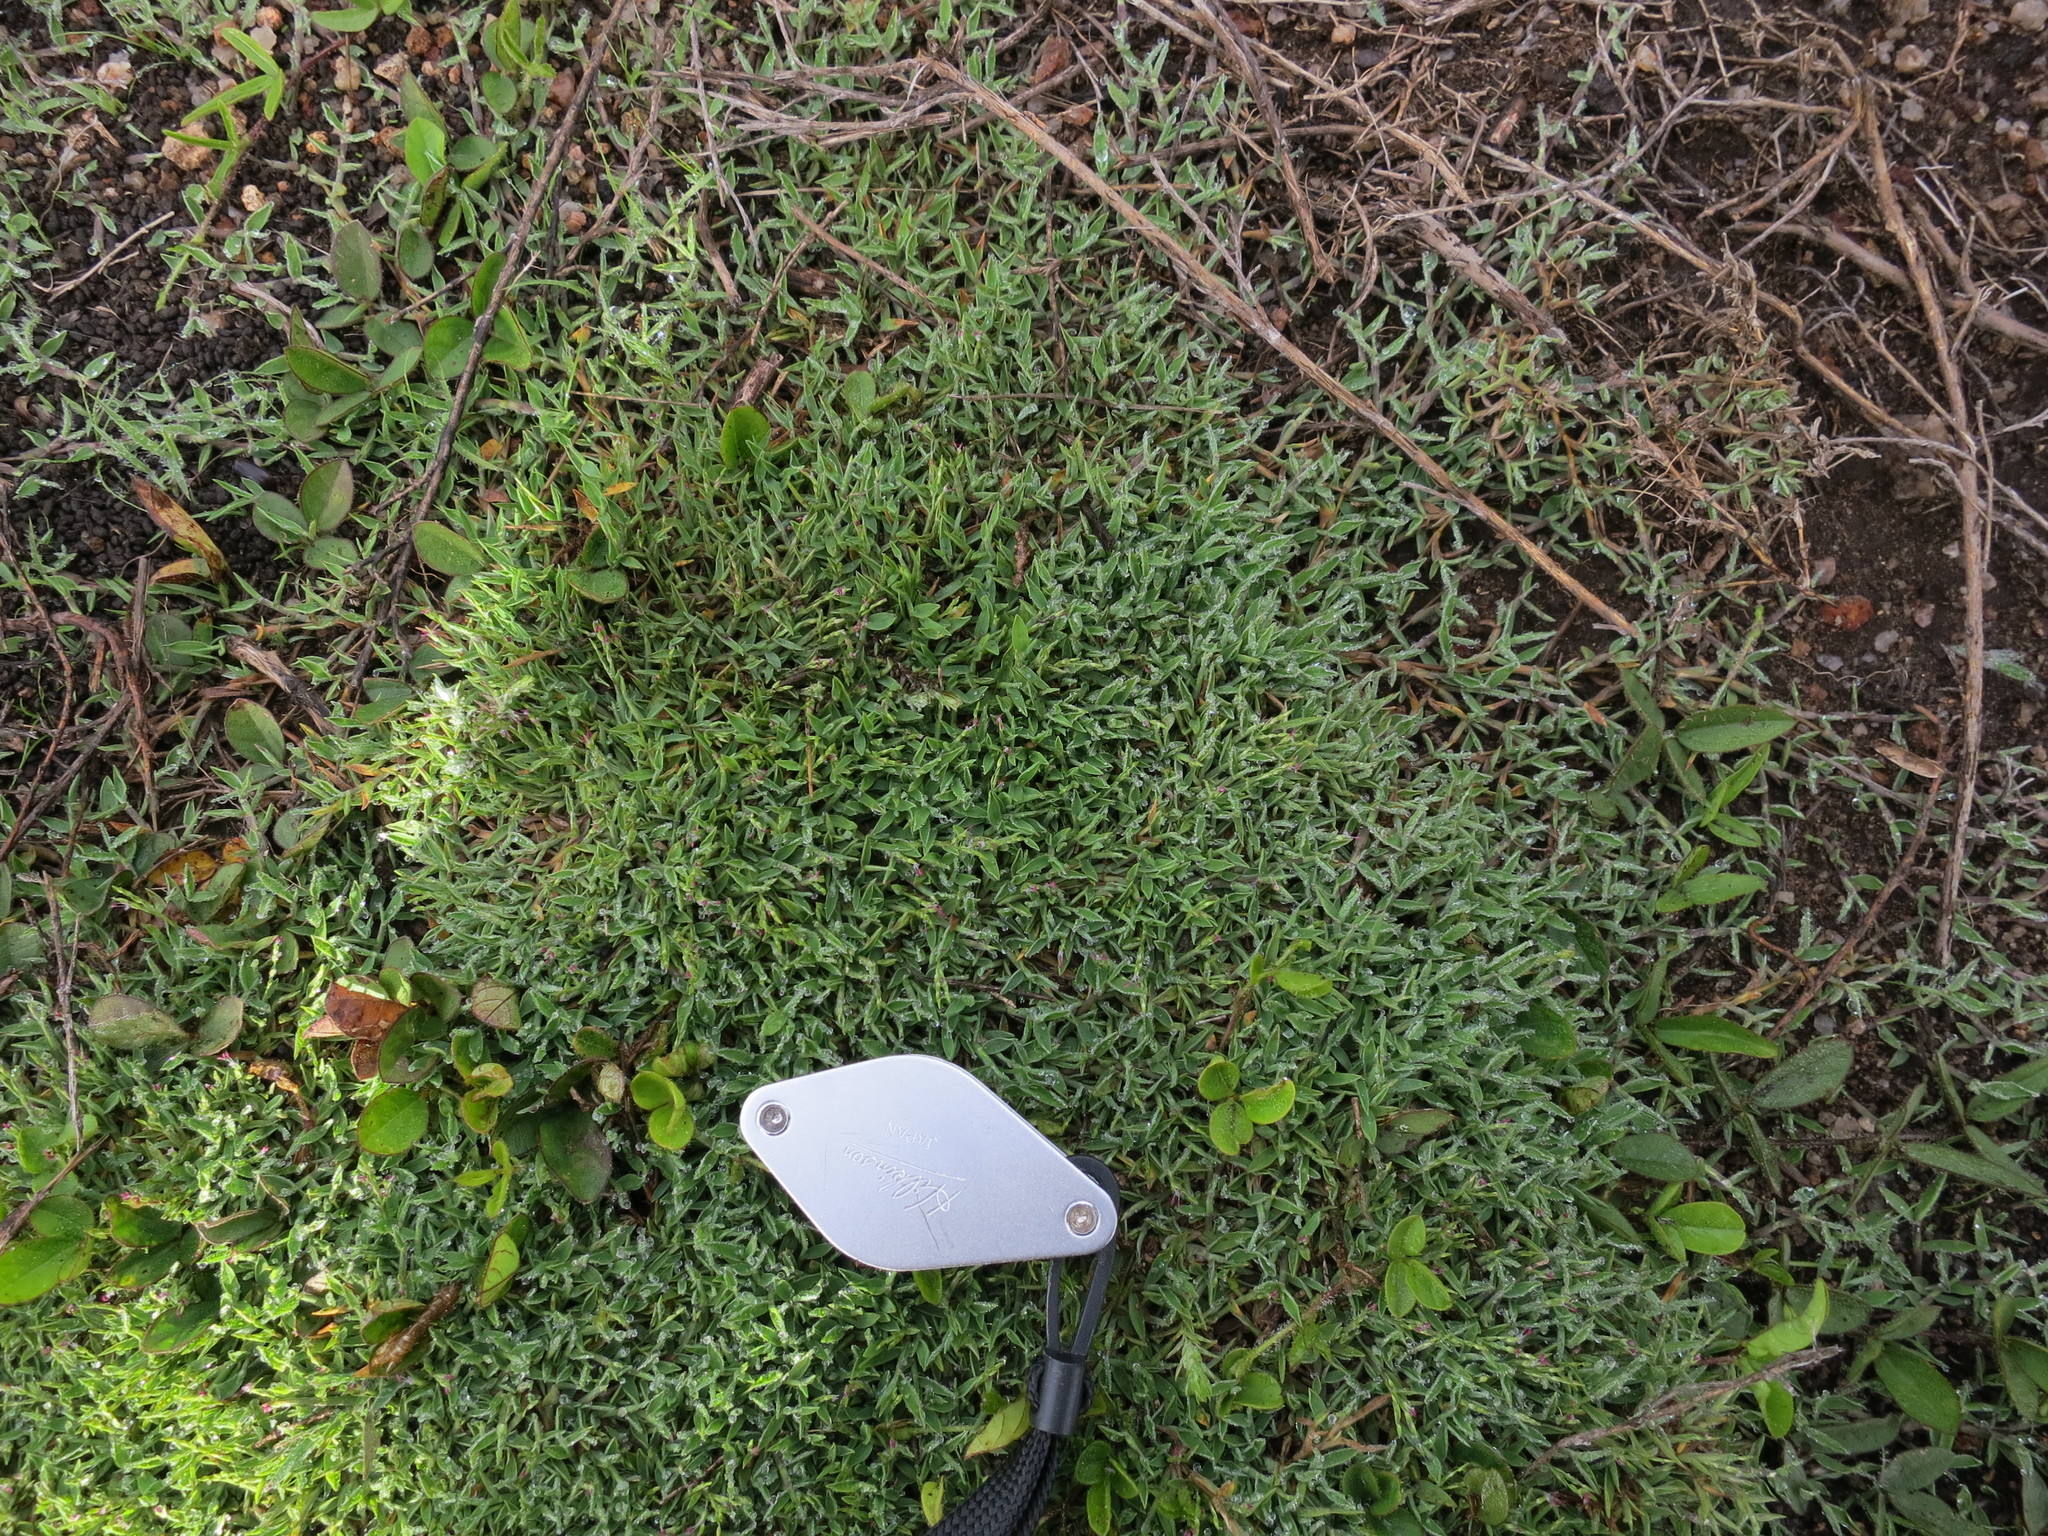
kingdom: Plantae
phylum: Tracheophyta
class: Liliopsida
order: Poales
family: Poaceae
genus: Digitaria
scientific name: Digitaria ankaratrensis
